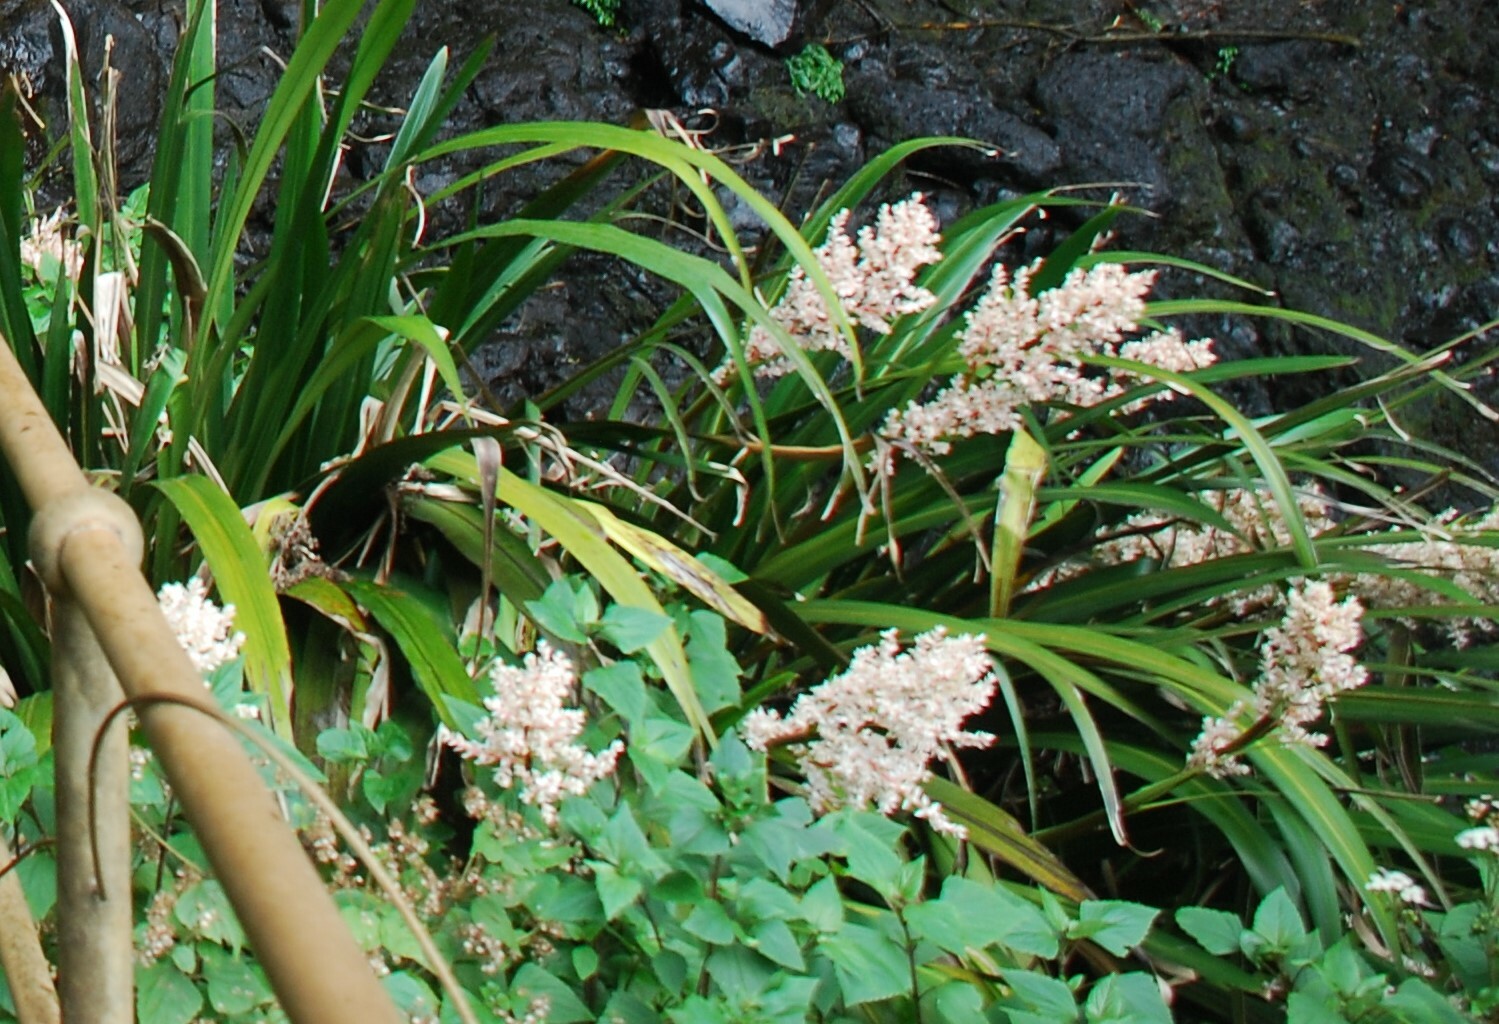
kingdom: Plantae
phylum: Tracheophyta
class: Liliopsida
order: Commelinales
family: Philydraceae
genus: Helmholtzia
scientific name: Helmholtzia glaberrima
